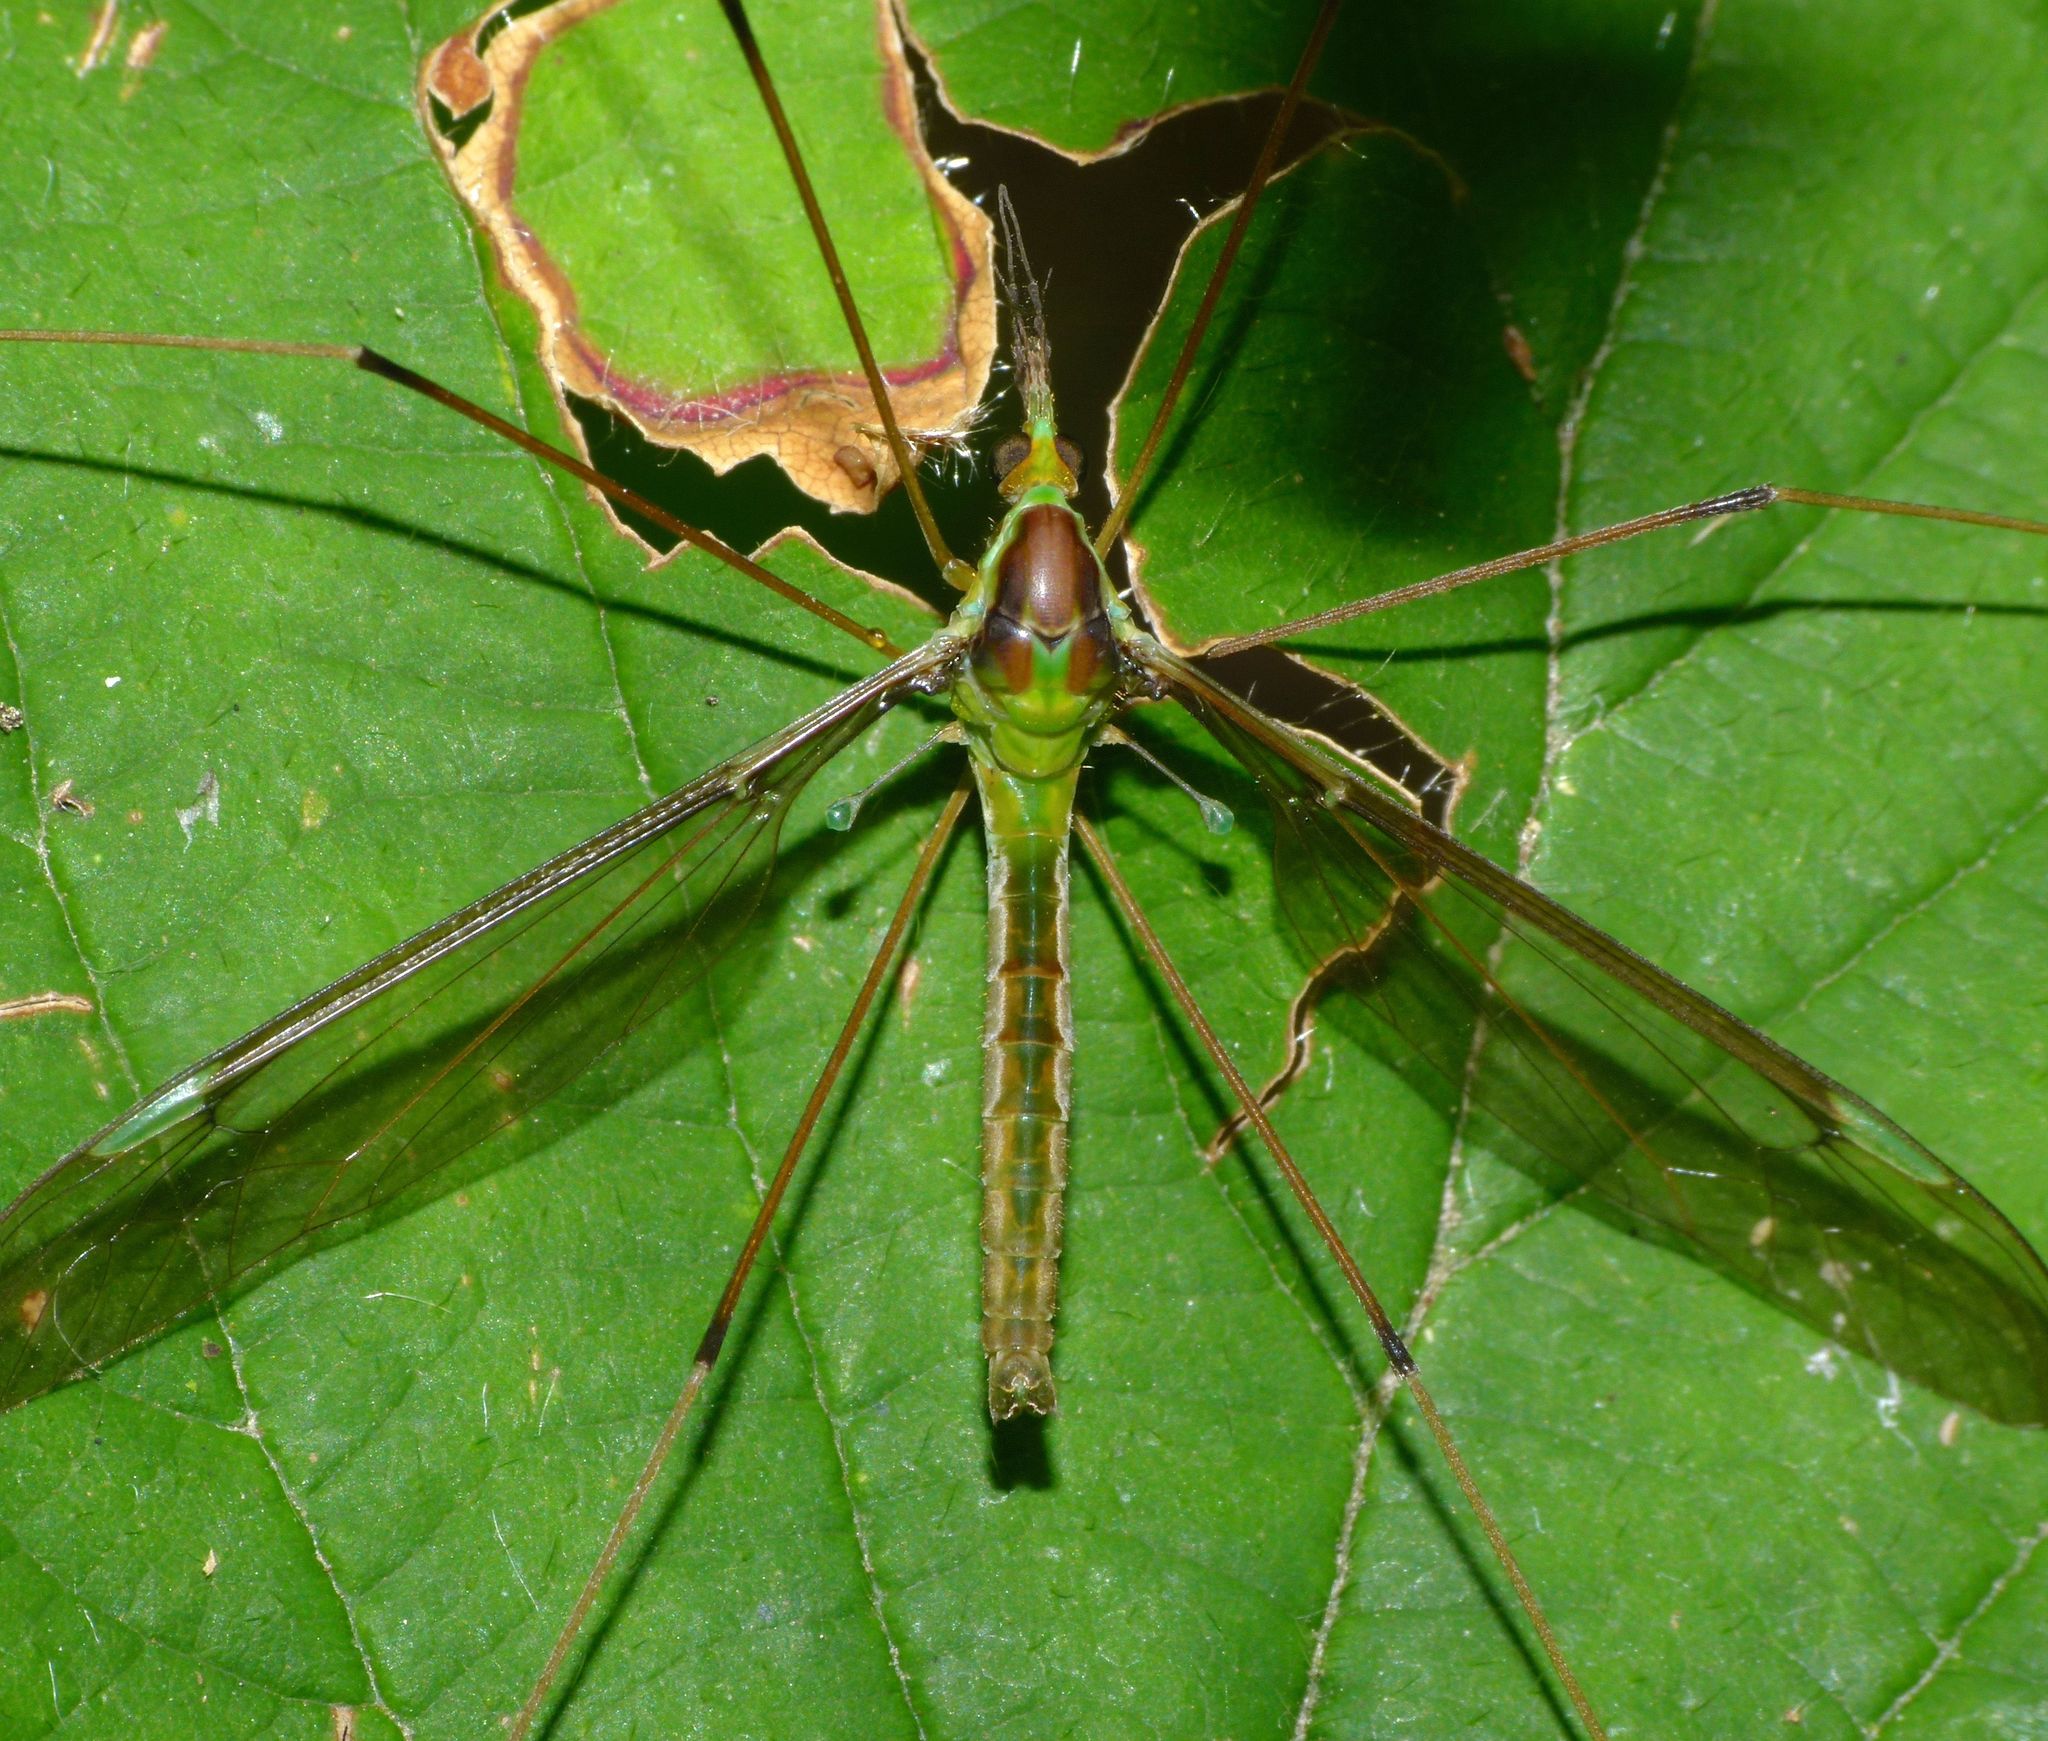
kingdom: Animalia
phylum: Arthropoda
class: Insecta
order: Diptera
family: Tipulidae
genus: Leptotarsus
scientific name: Leptotarsus albistigma
